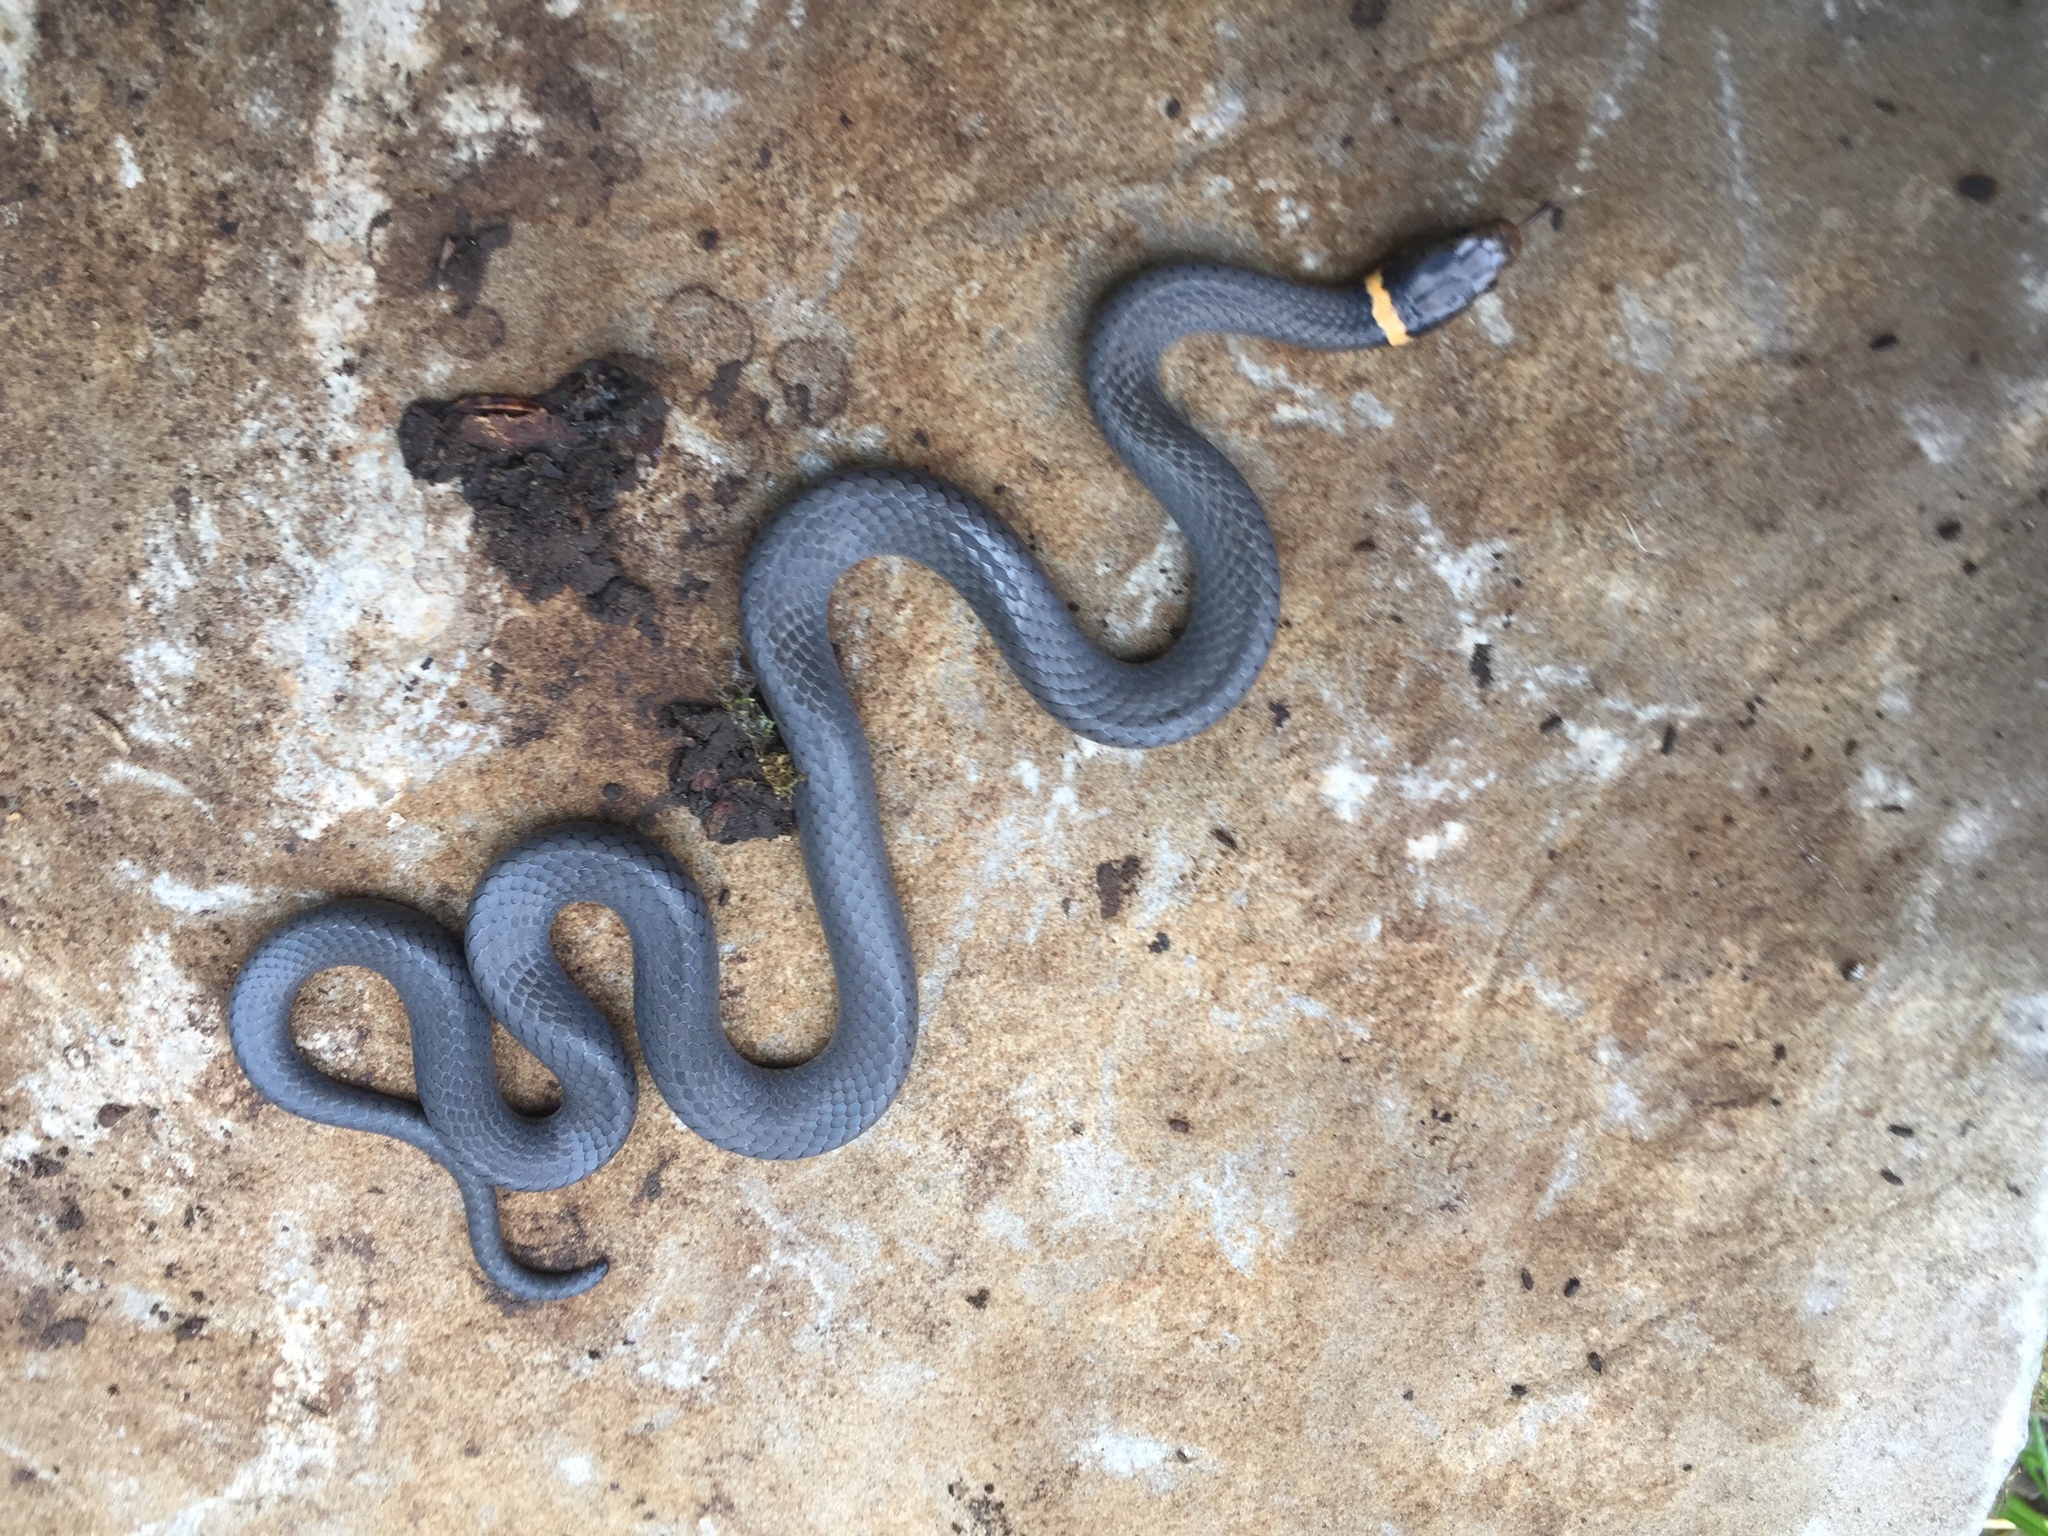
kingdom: Animalia
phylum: Chordata
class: Squamata
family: Colubridae
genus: Diadophis
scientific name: Diadophis punctatus
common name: Ringneck snake
